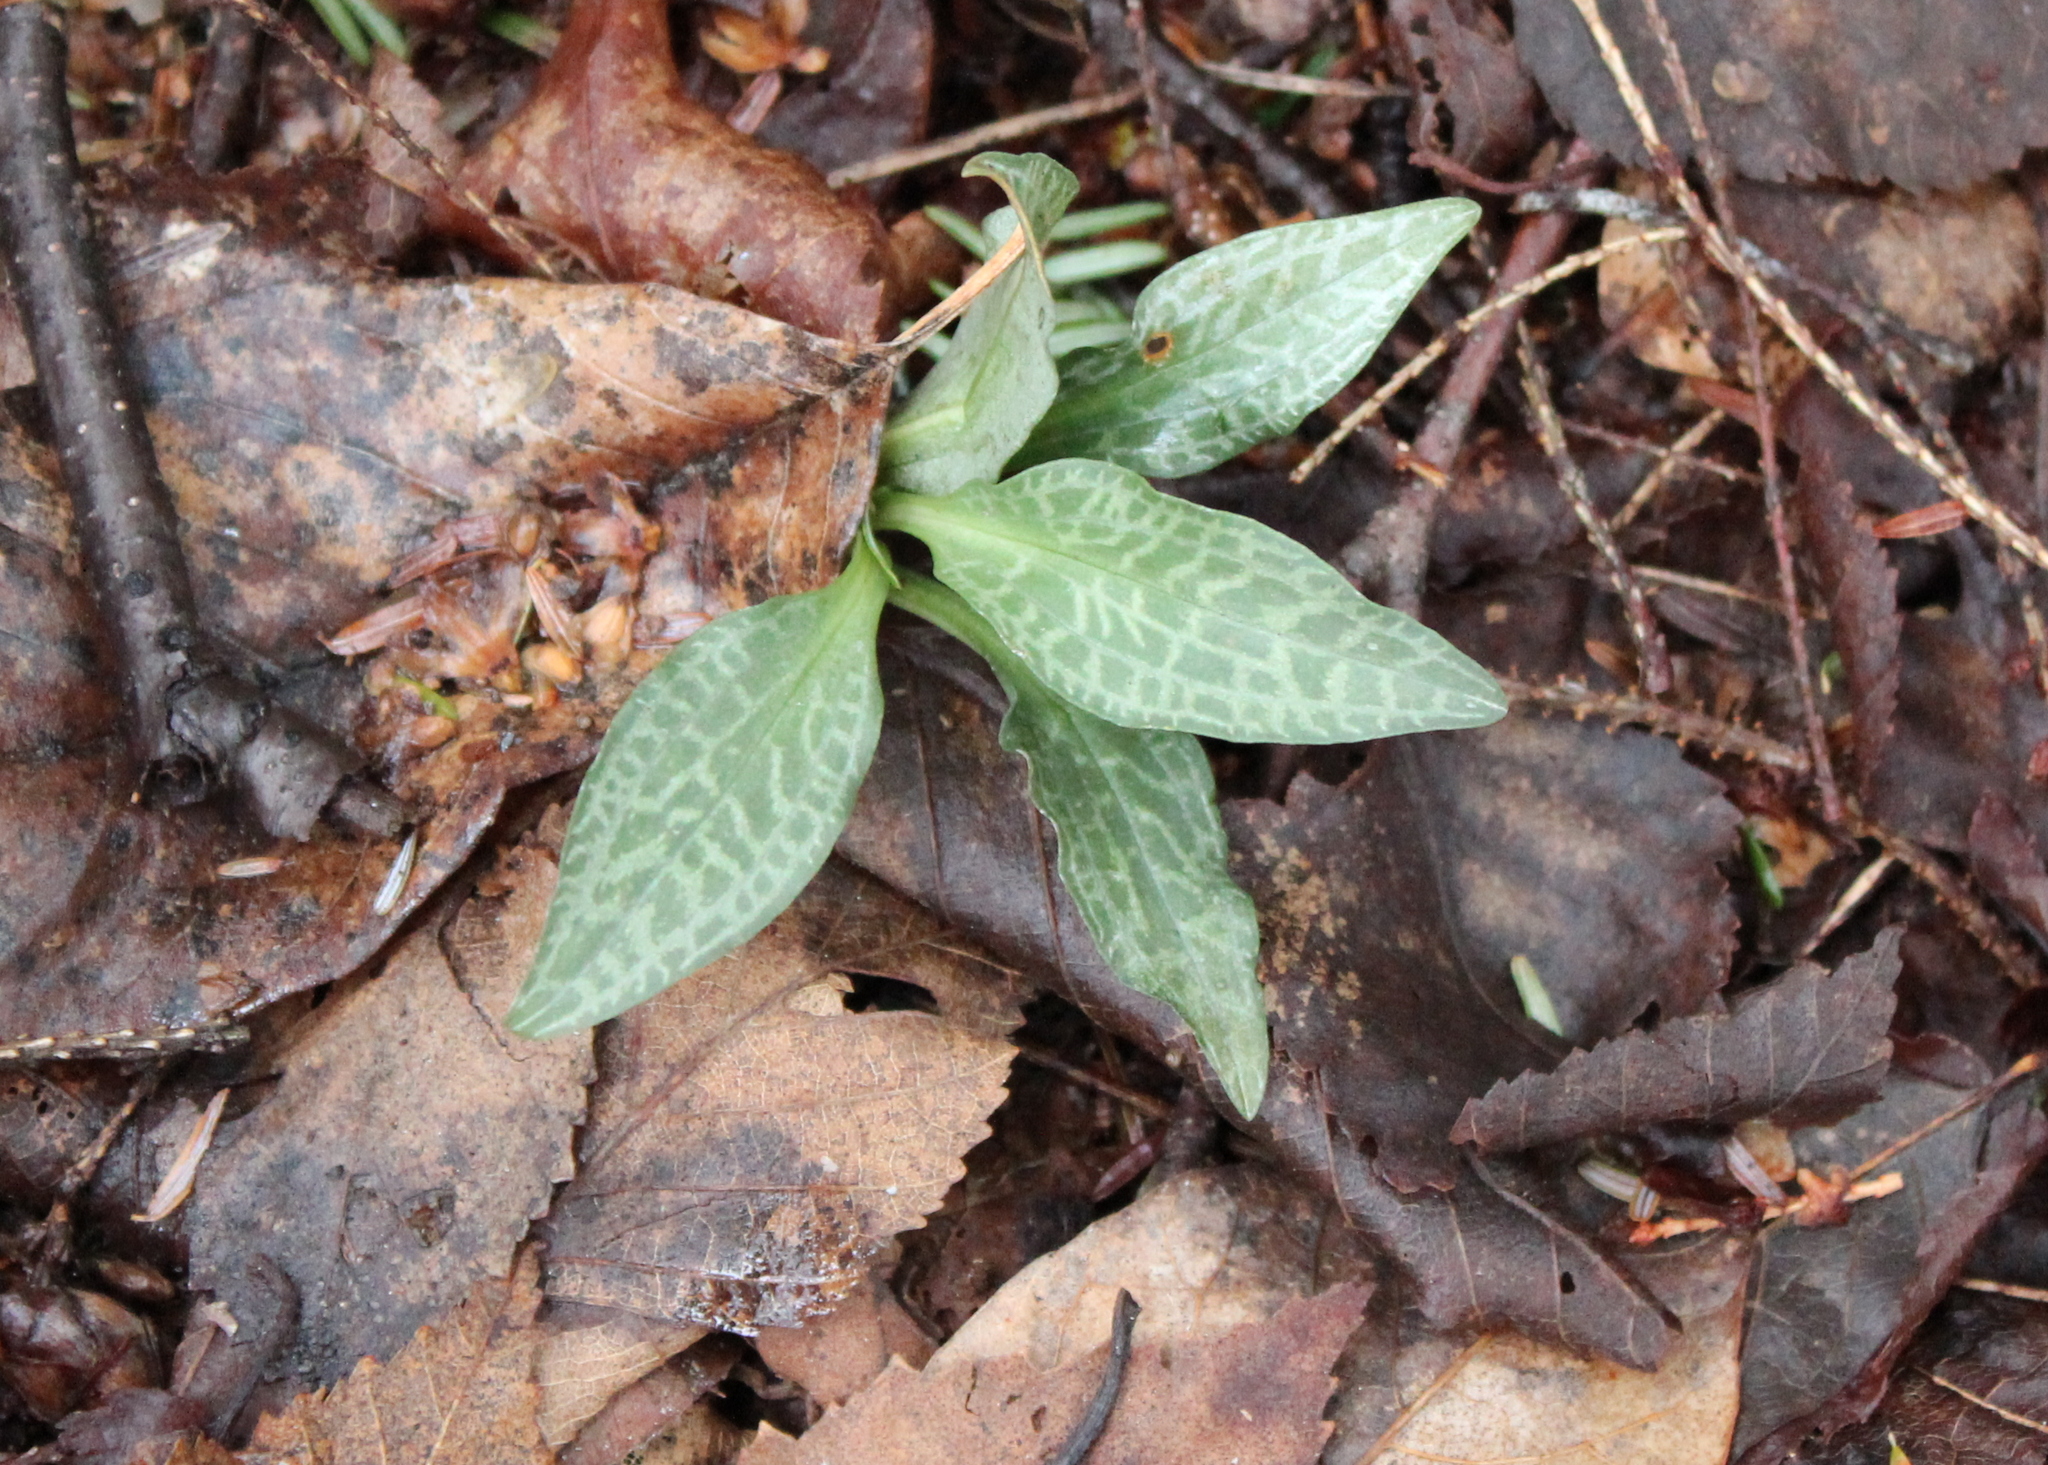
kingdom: Plantae
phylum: Tracheophyta
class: Liliopsida
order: Asparagales
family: Orchidaceae
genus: Goodyera
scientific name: Goodyera tesselata
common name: Checkered rattlesnake-plantain
